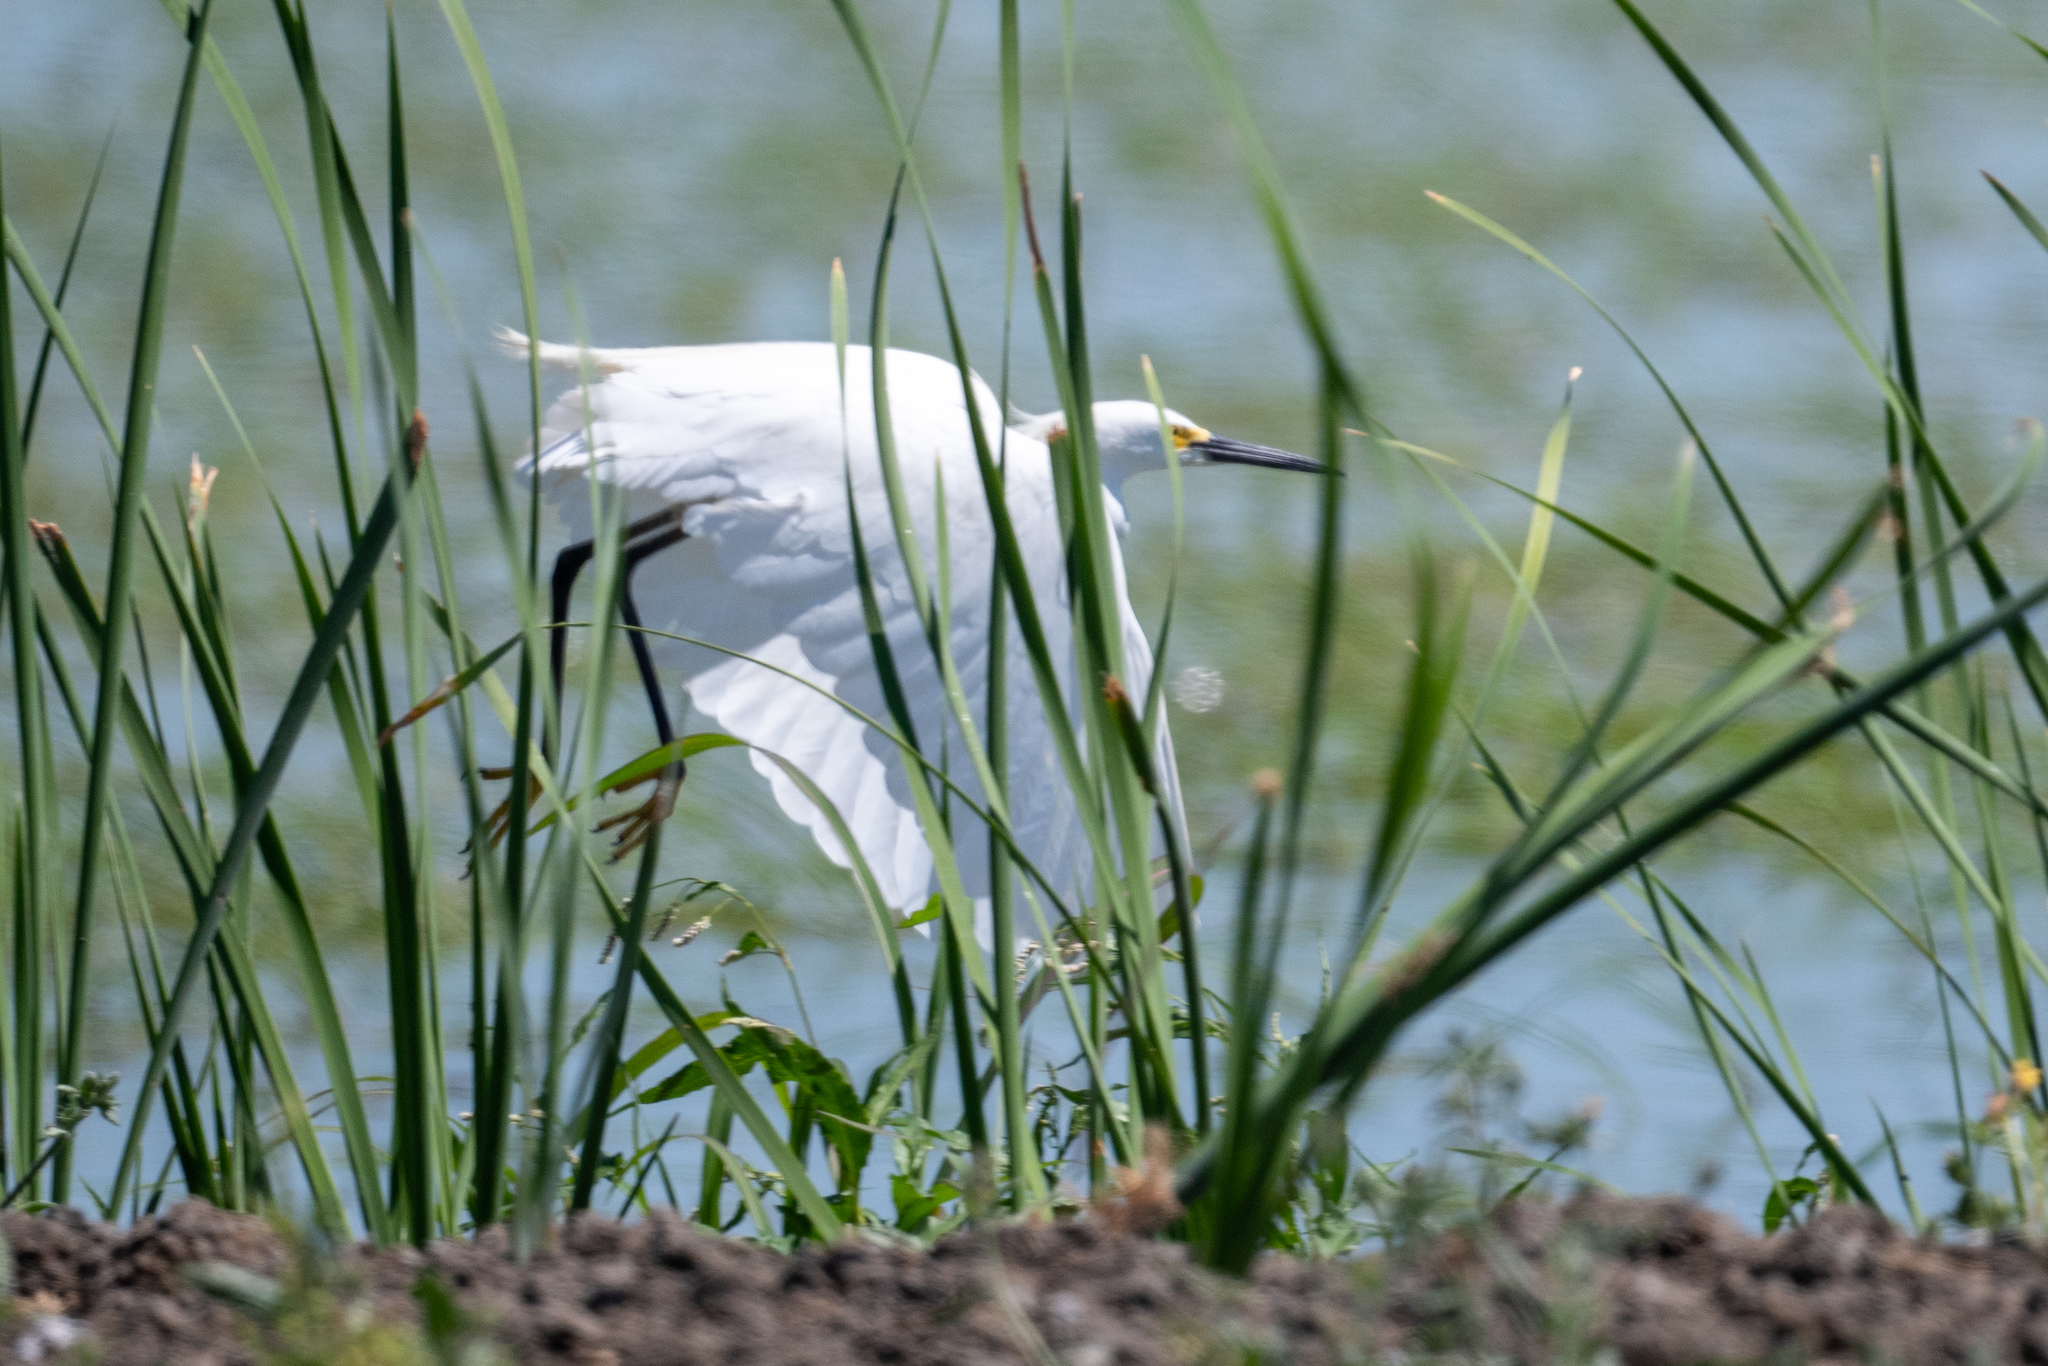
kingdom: Animalia
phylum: Chordata
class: Aves
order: Pelecaniformes
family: Ardeidae
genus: Egretta
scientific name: Egretta thula
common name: Snowy egret
